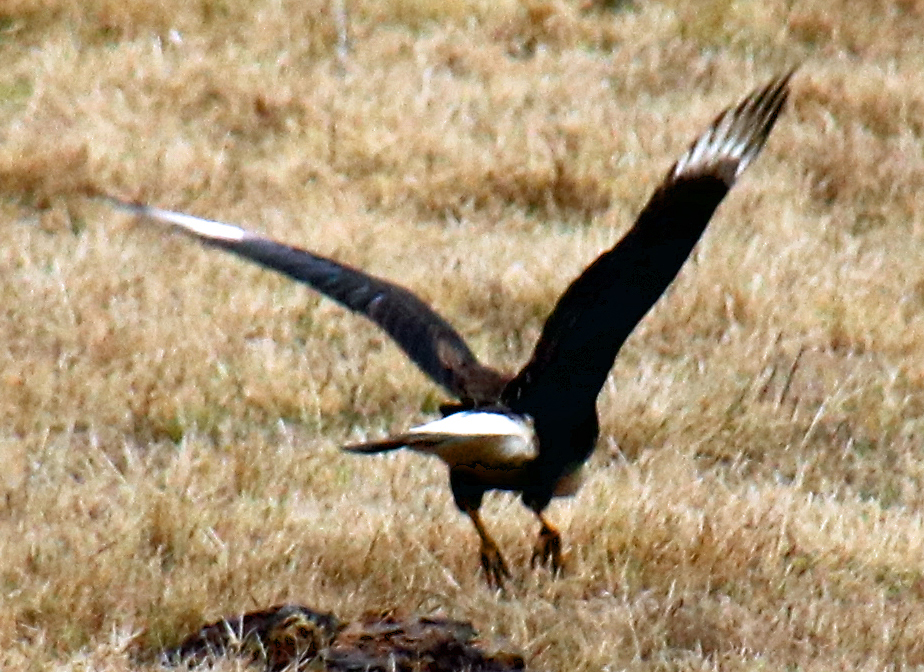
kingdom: Animalia
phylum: Chordata
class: Aves
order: Falconiformes
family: Falconidae
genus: Caracara
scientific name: Caracara plancus
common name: Southern caracara
